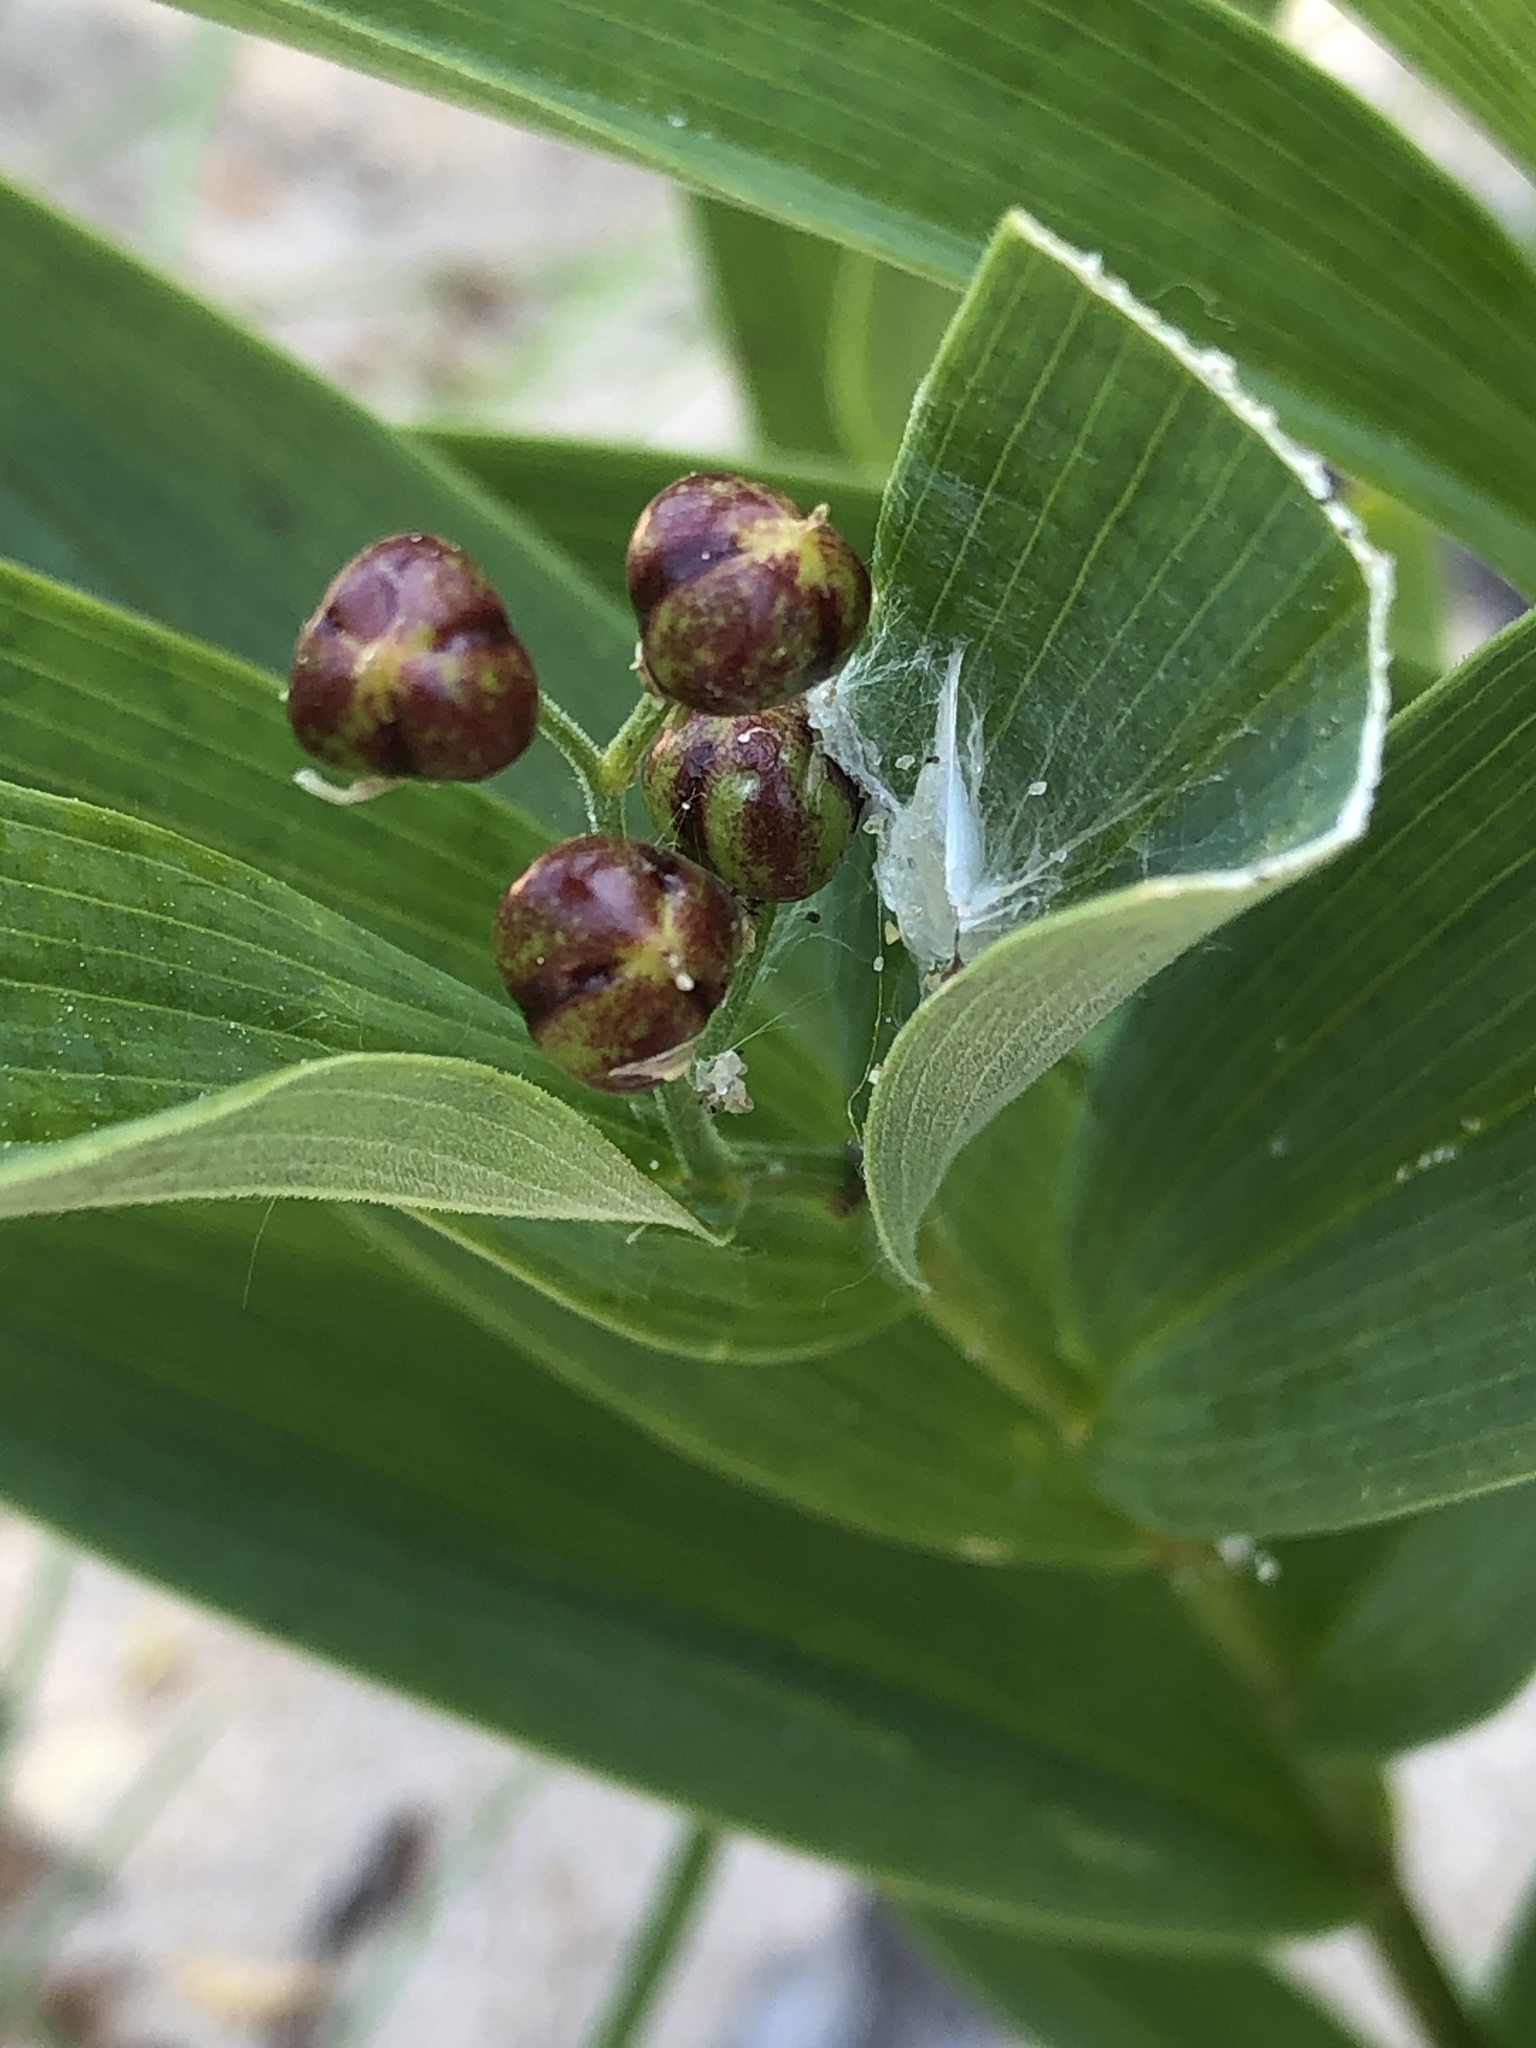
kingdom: Plantae
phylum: Tracheophyta
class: Liliopsida
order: Asparagales
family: Asparagaceae
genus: Maianthemum
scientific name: Maianthemum stellatum
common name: Little false solomon's seal
